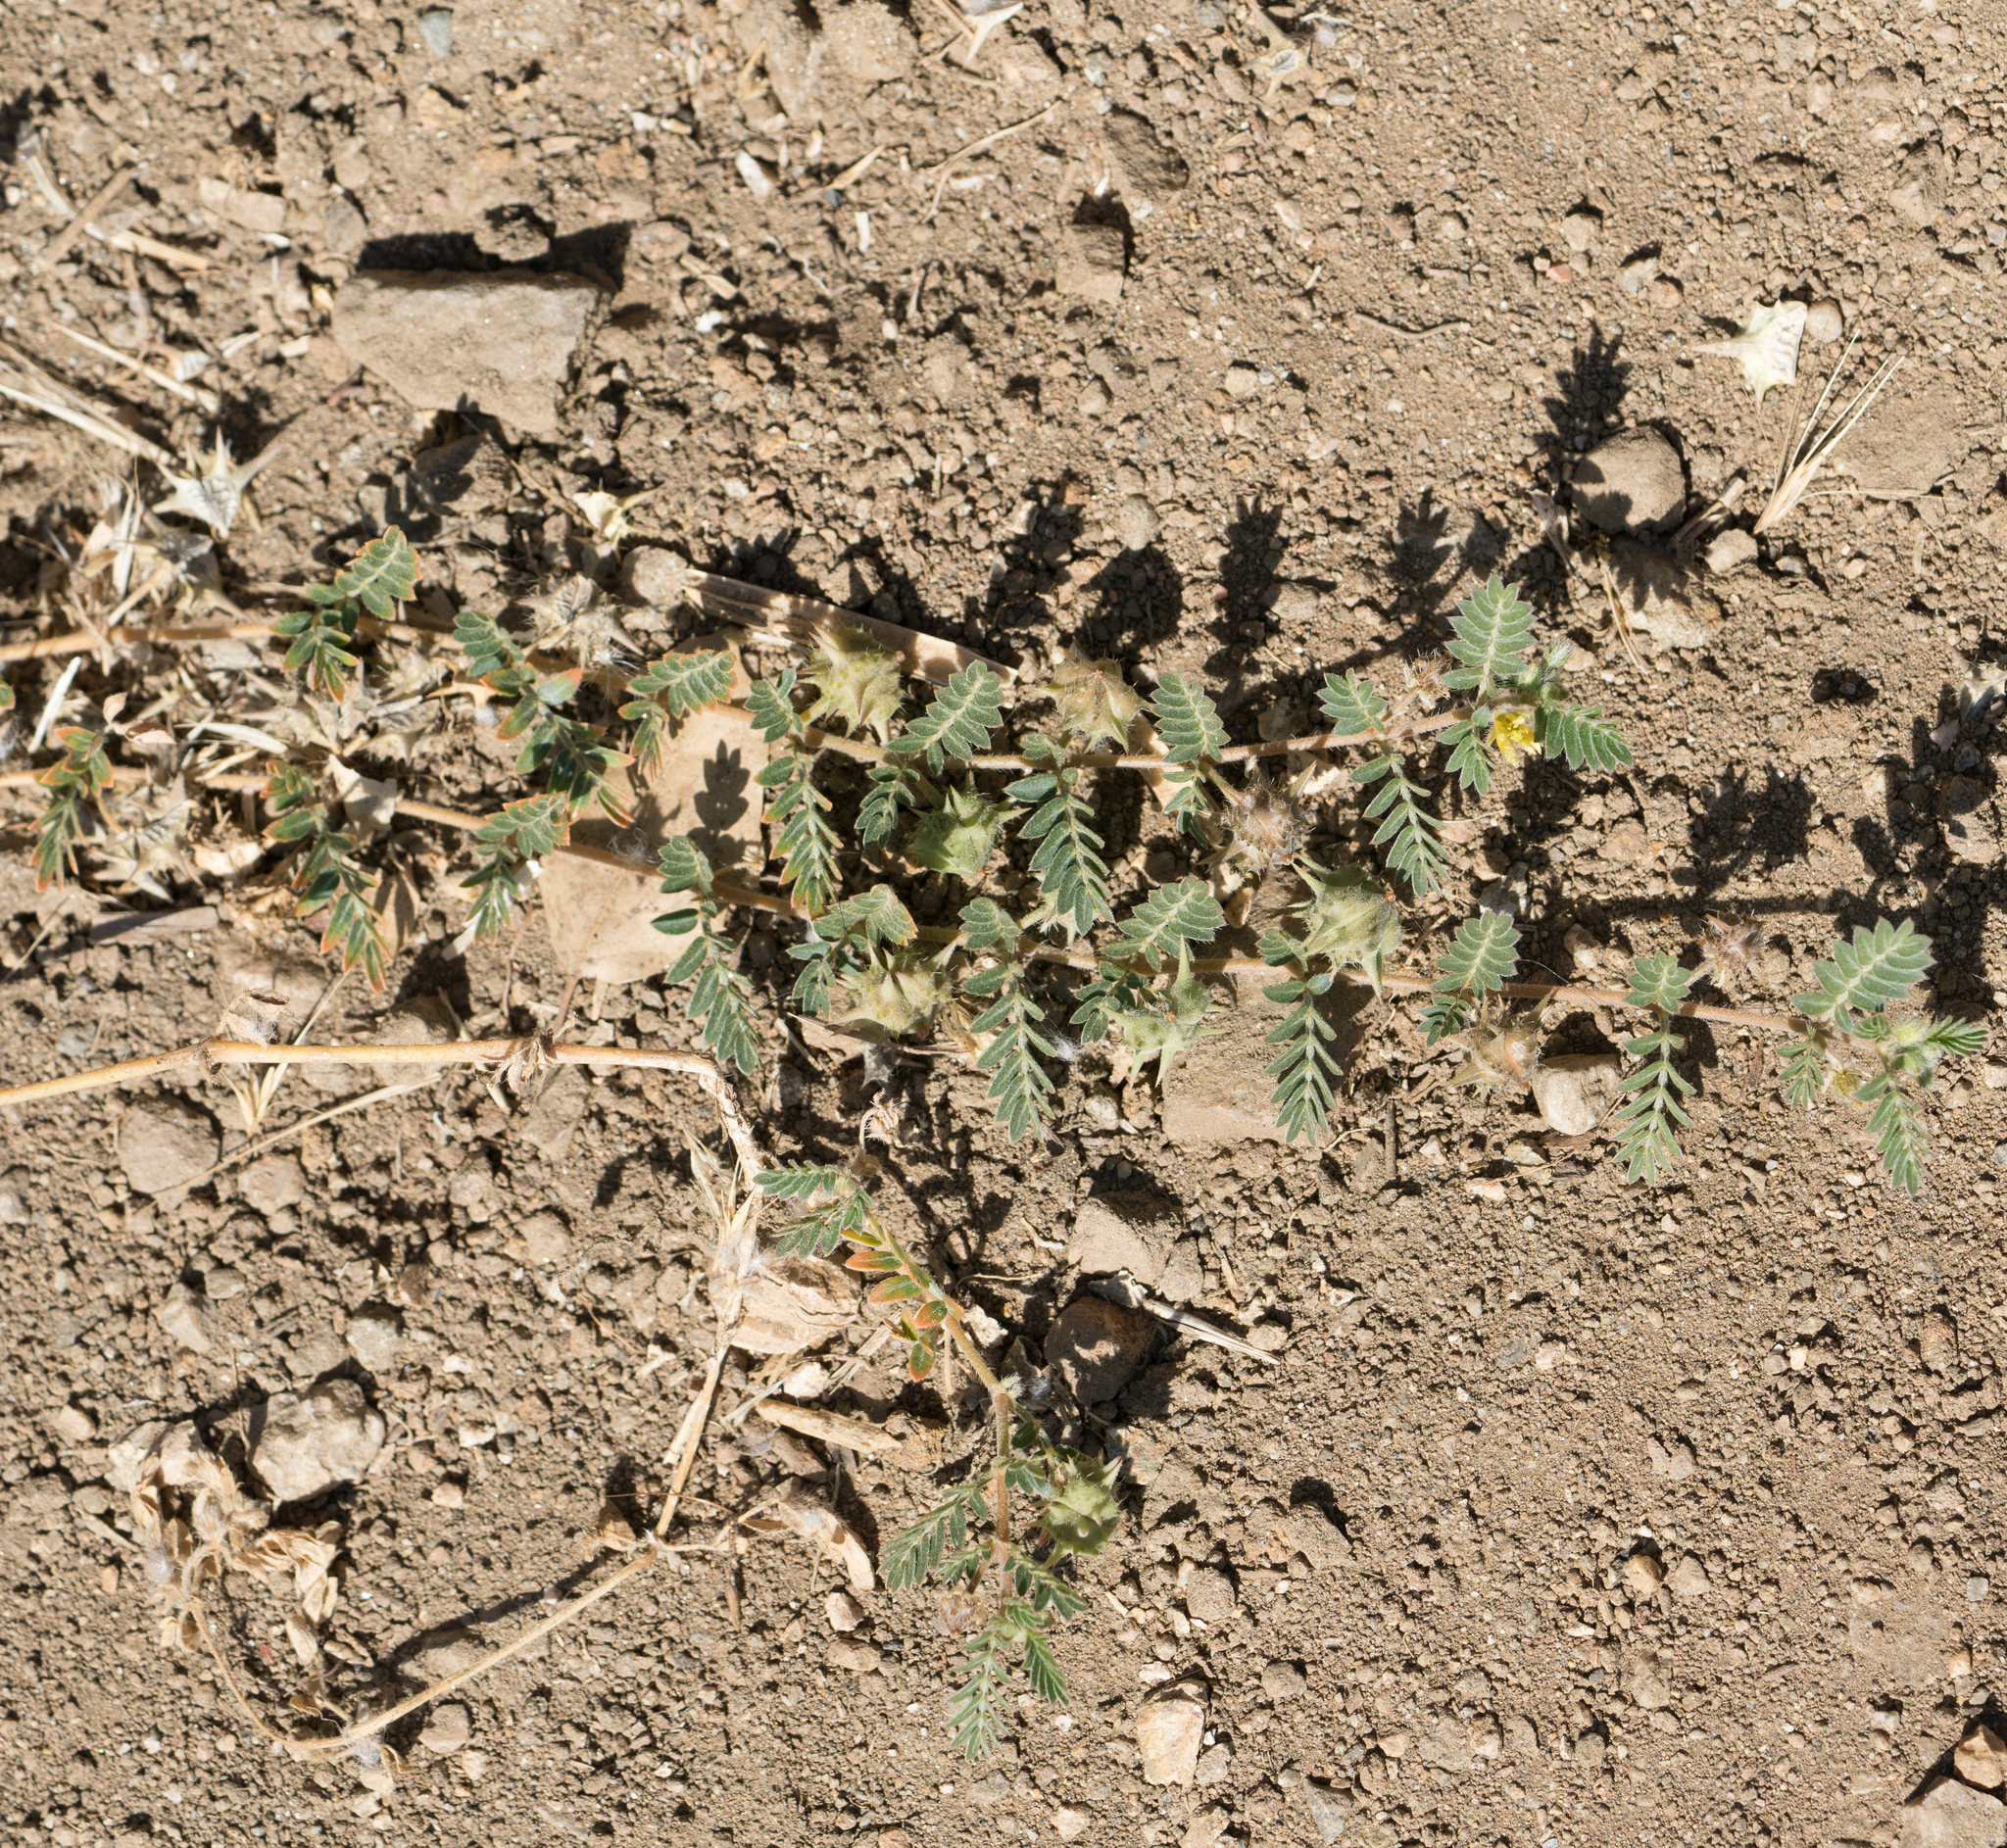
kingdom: Plantae
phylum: Tracheophyta
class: Magnoliopsida
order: Zygophyllales
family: Zygophyllaceae
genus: Tribulus
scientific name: Tribulus terrestris
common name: Puncturevine
